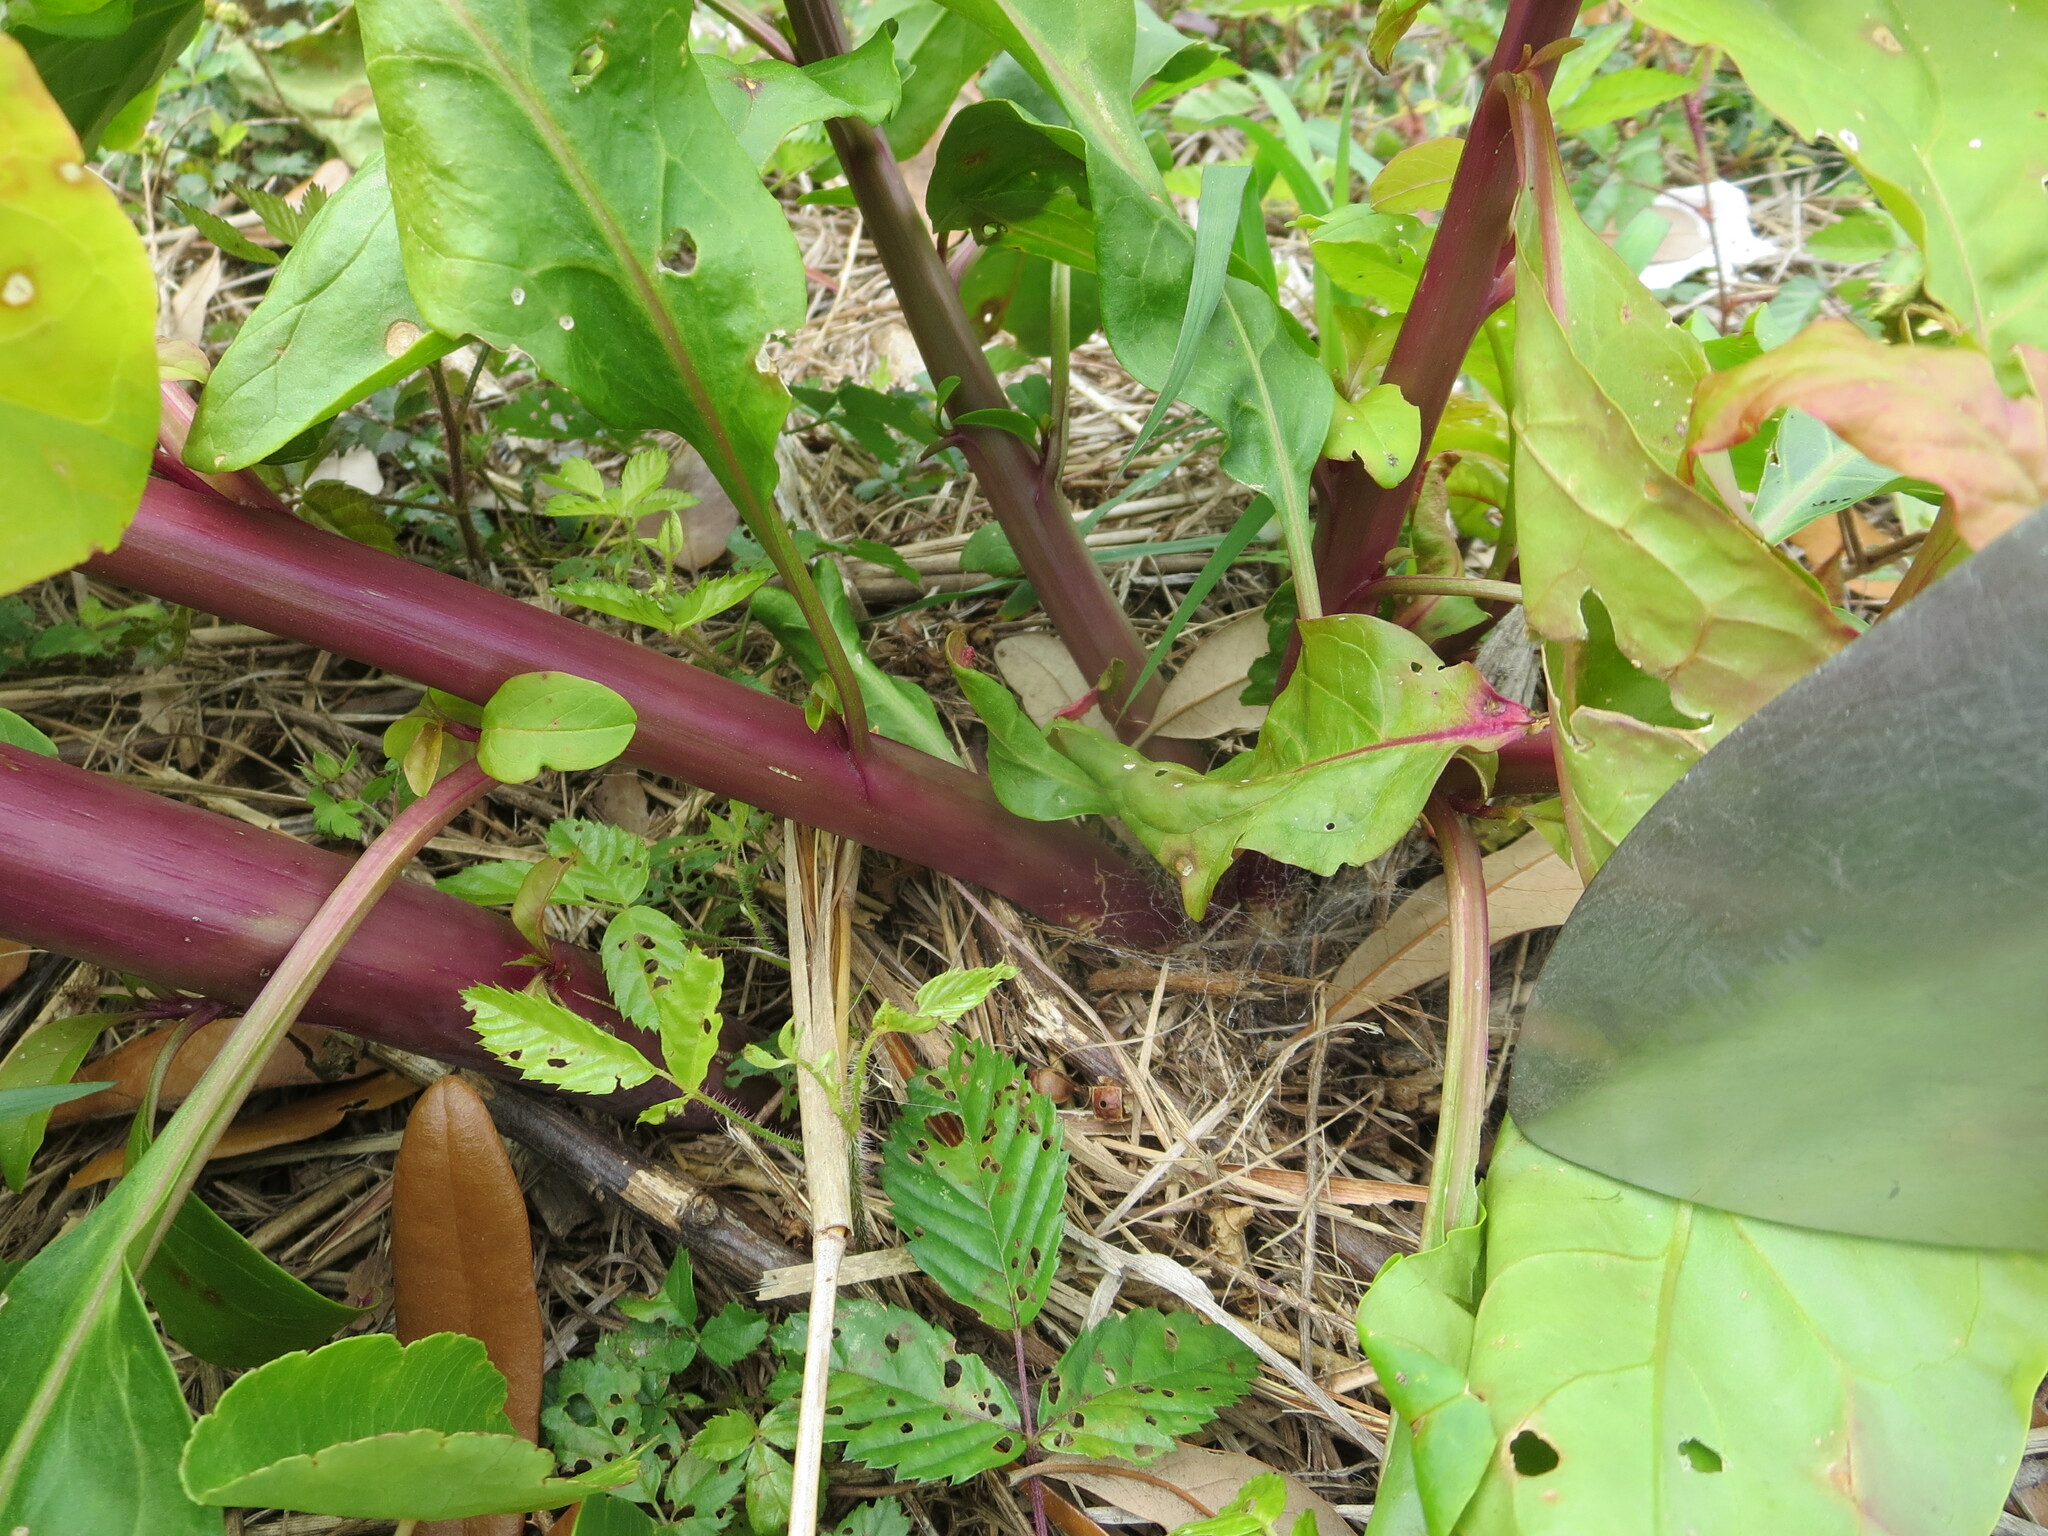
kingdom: Plantae
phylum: Tracheophyta
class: Magnoliopsida
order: Caryophyllales
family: Phytolaccaceae
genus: Phytolacca
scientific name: Phytolacca americana
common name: American pokeweed
